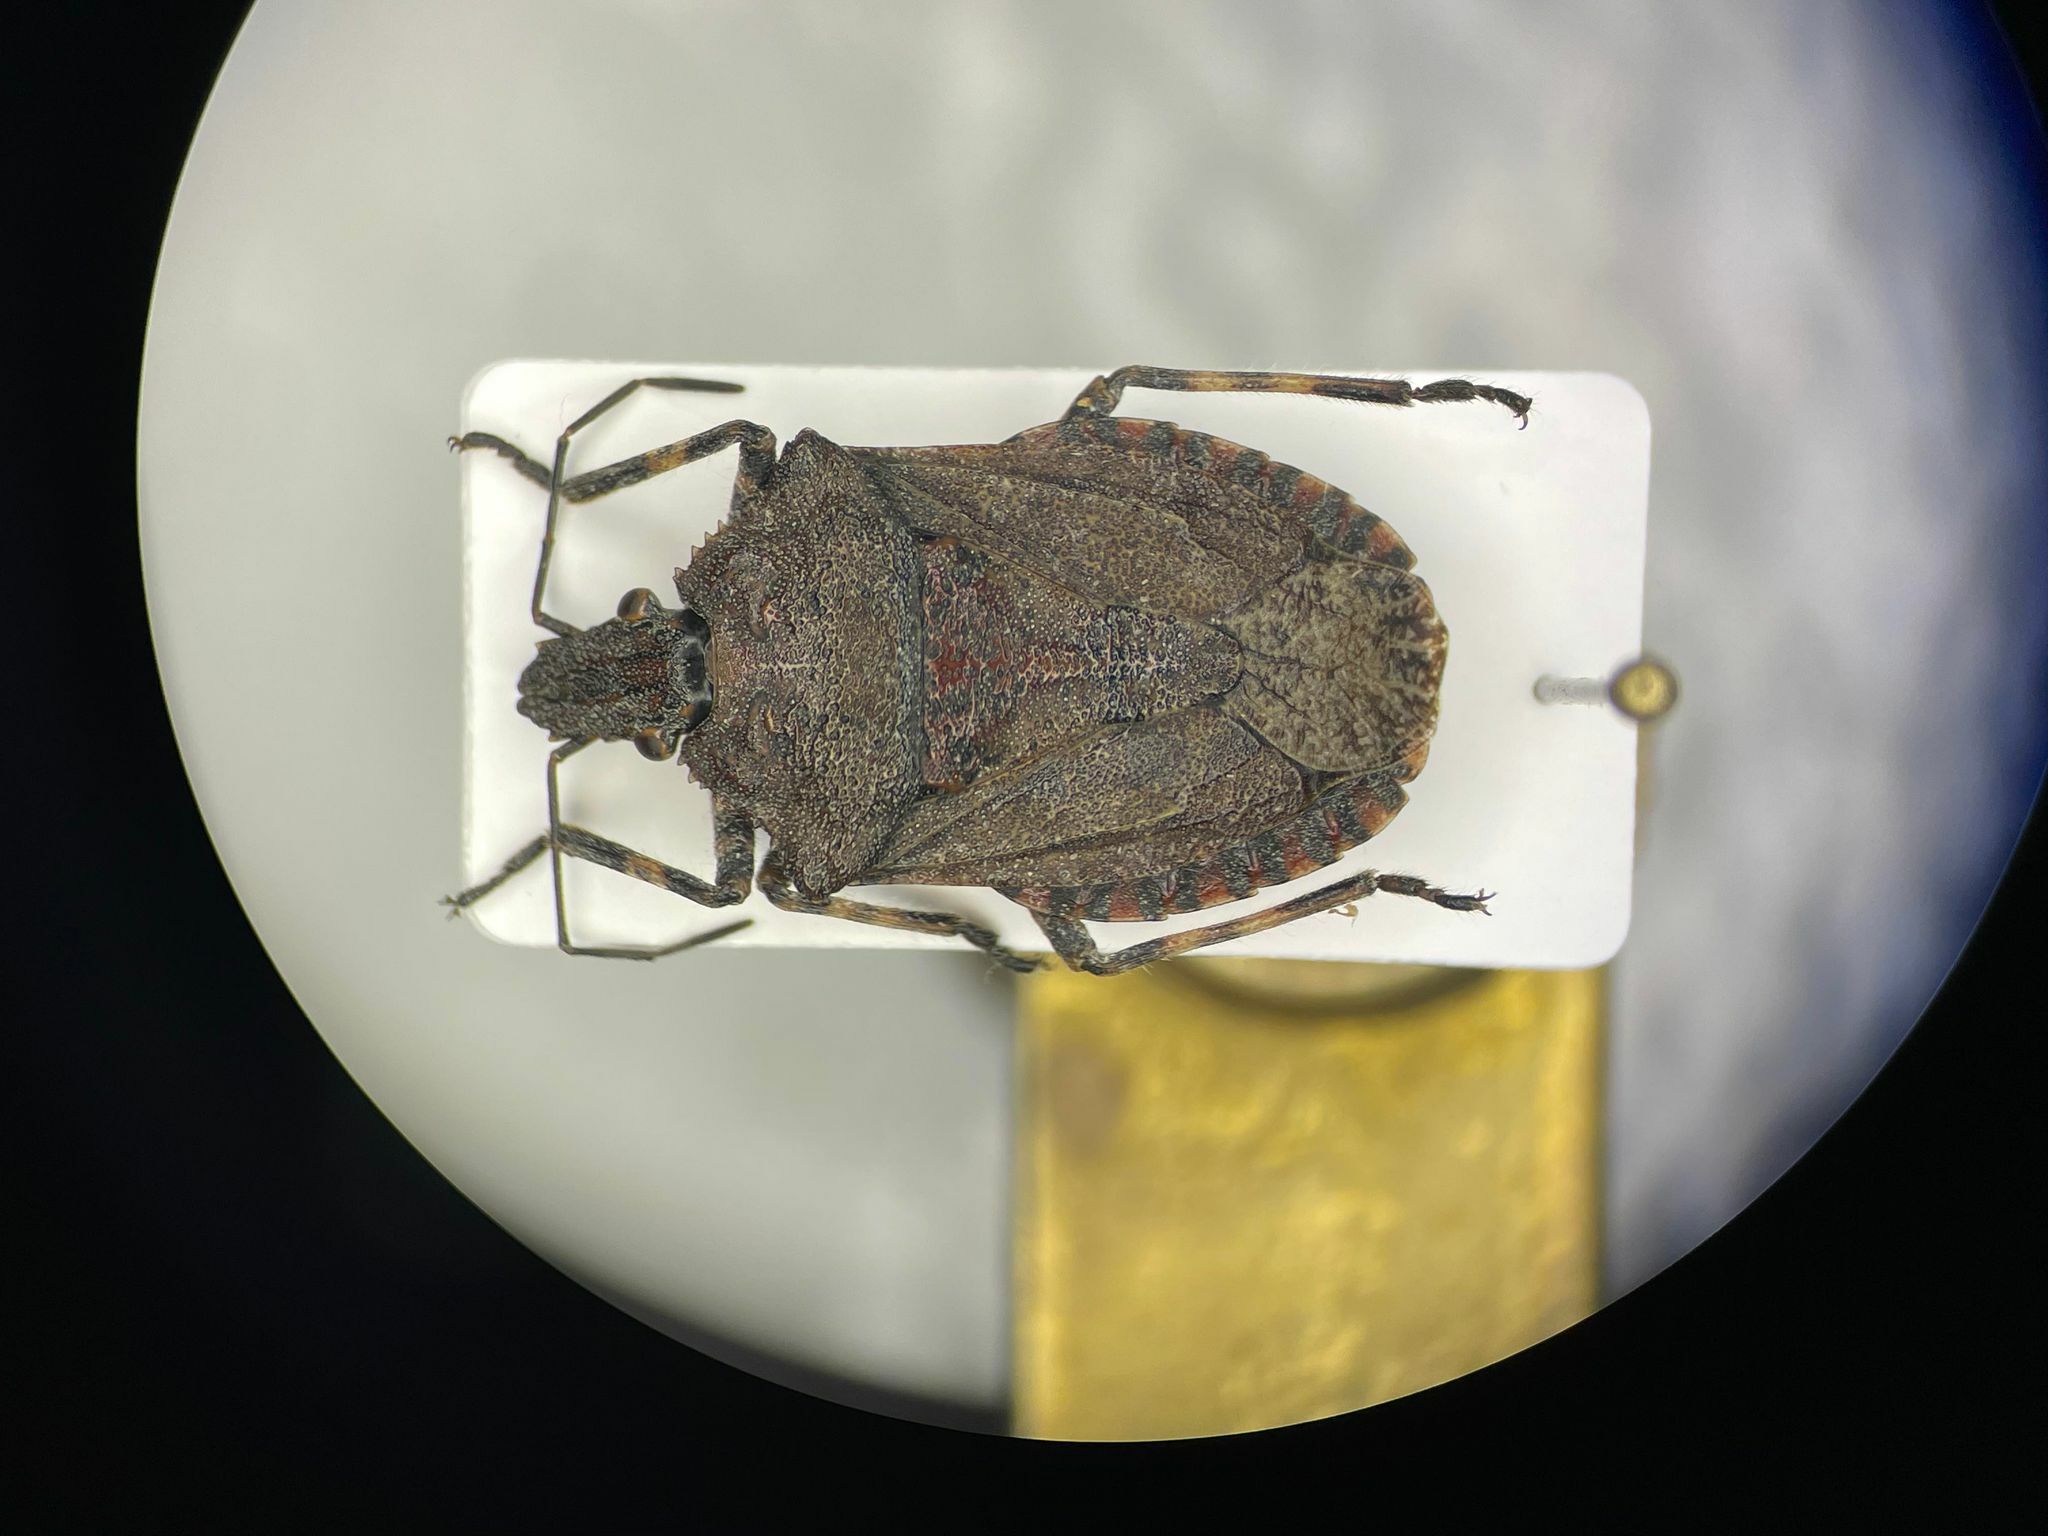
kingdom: Animalia
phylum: Arthropoda
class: Insecta
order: Hemiptera
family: Pentatomidae
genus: Brochymena
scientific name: Brochymena quadripustulata
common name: Four-humped stink bug
